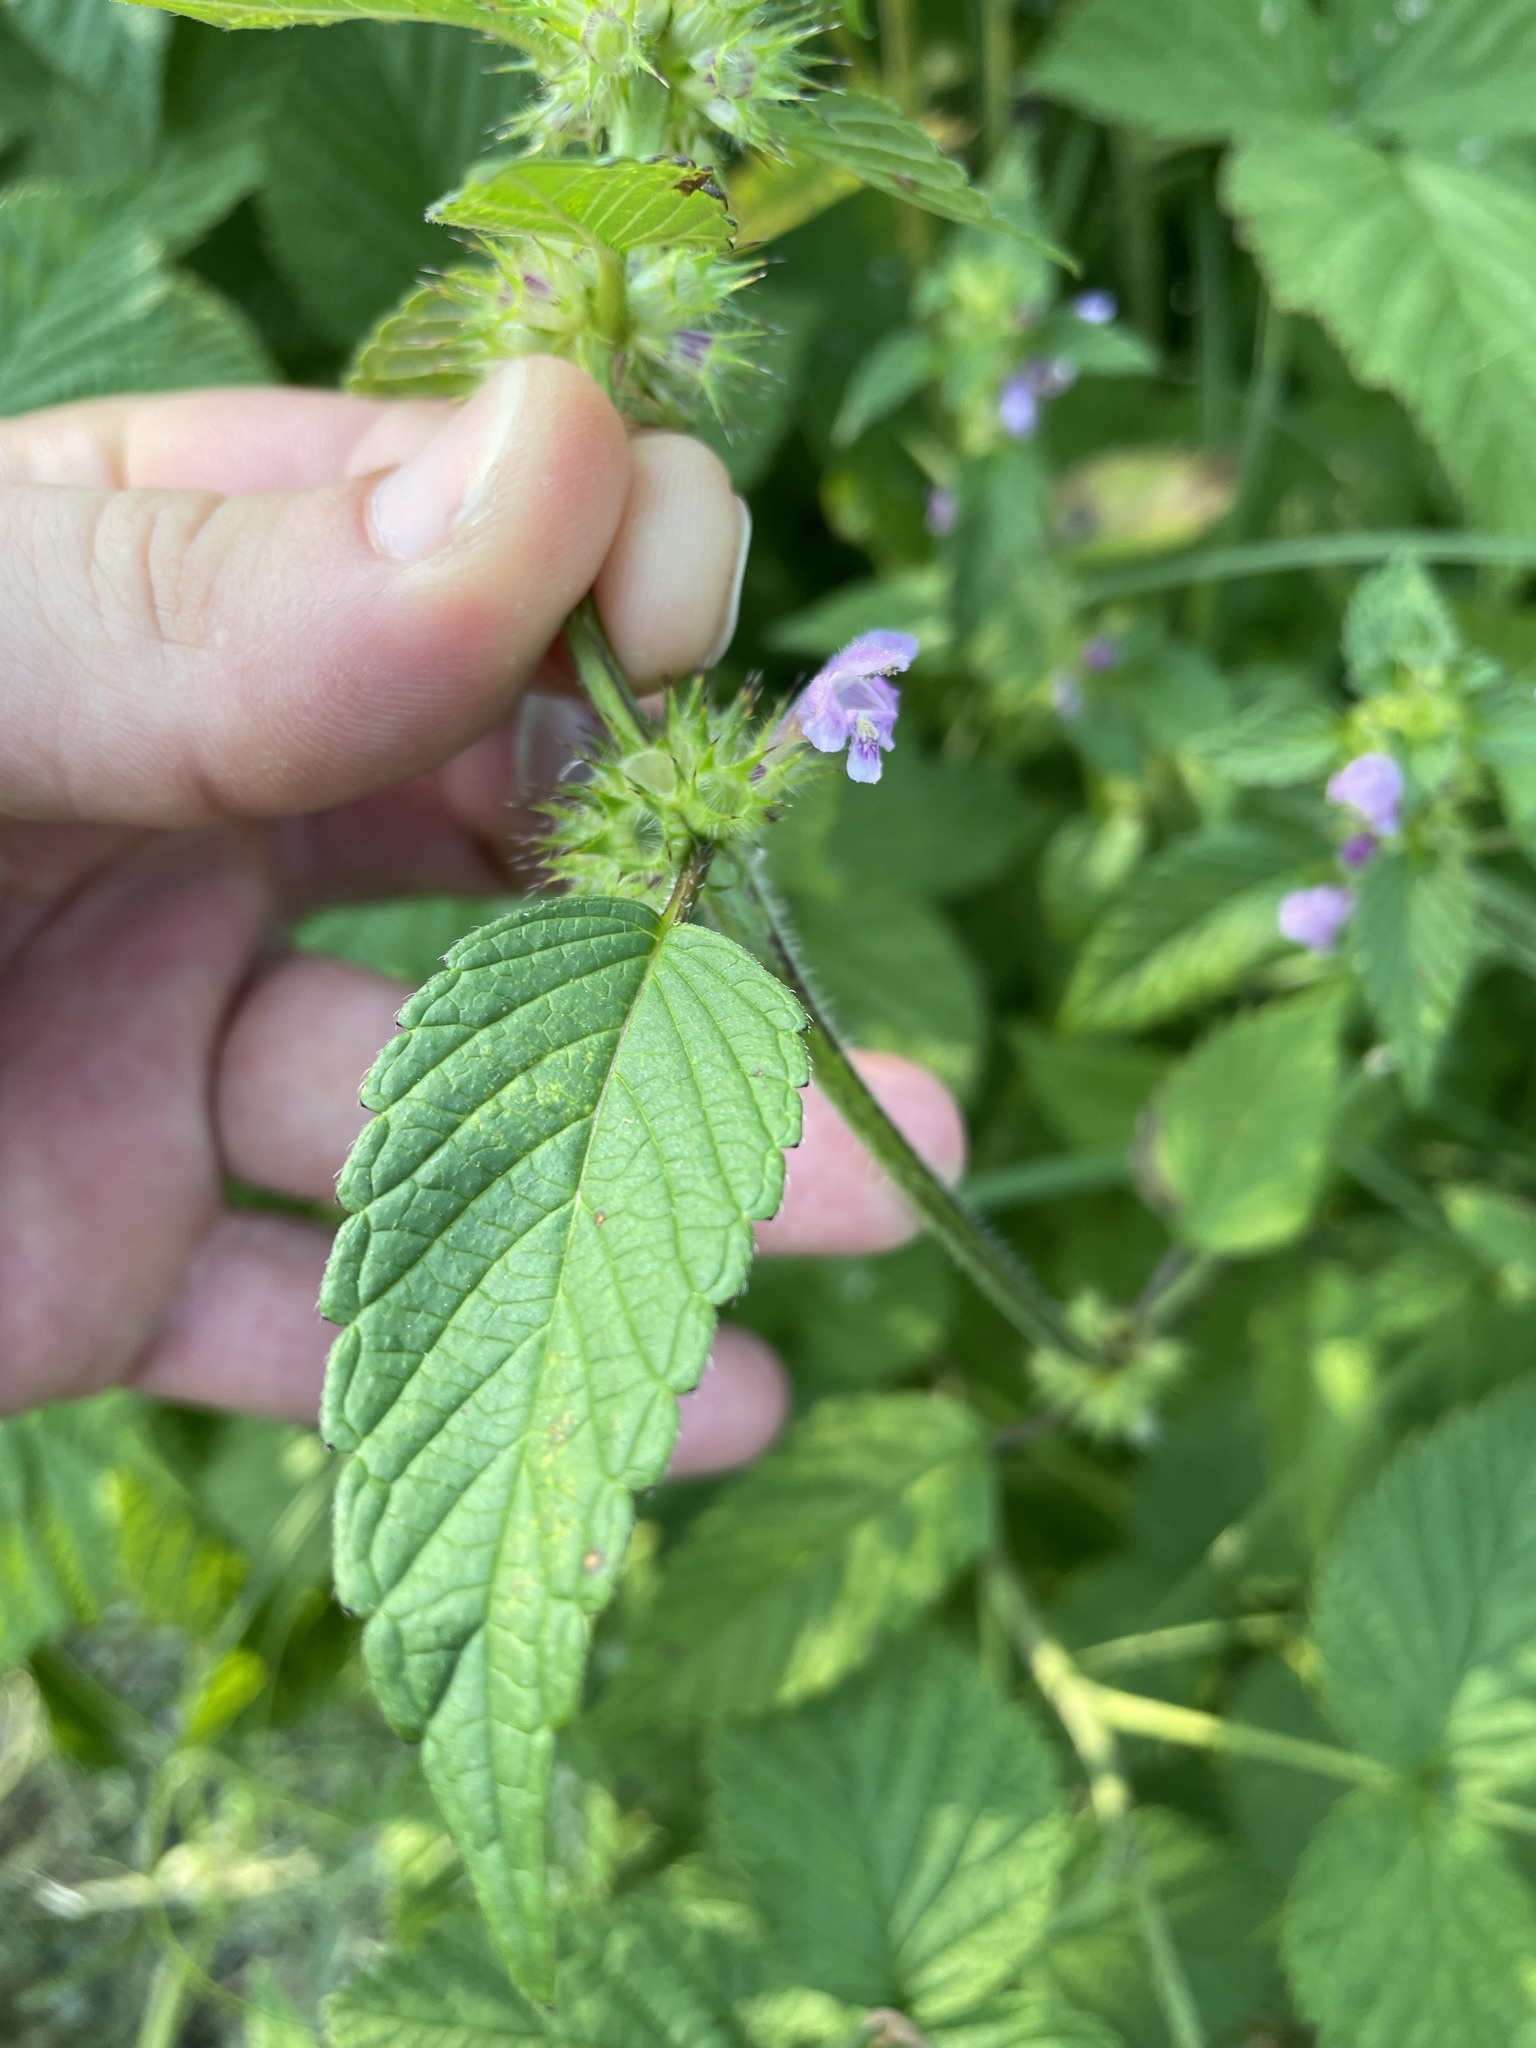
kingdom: Plantae
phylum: Tracheophyta
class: Magnoliopsida
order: Lamiales
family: Lamiaceae
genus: Galeopsis
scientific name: Galeopsis tetrahit
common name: Common hemp-nettle
